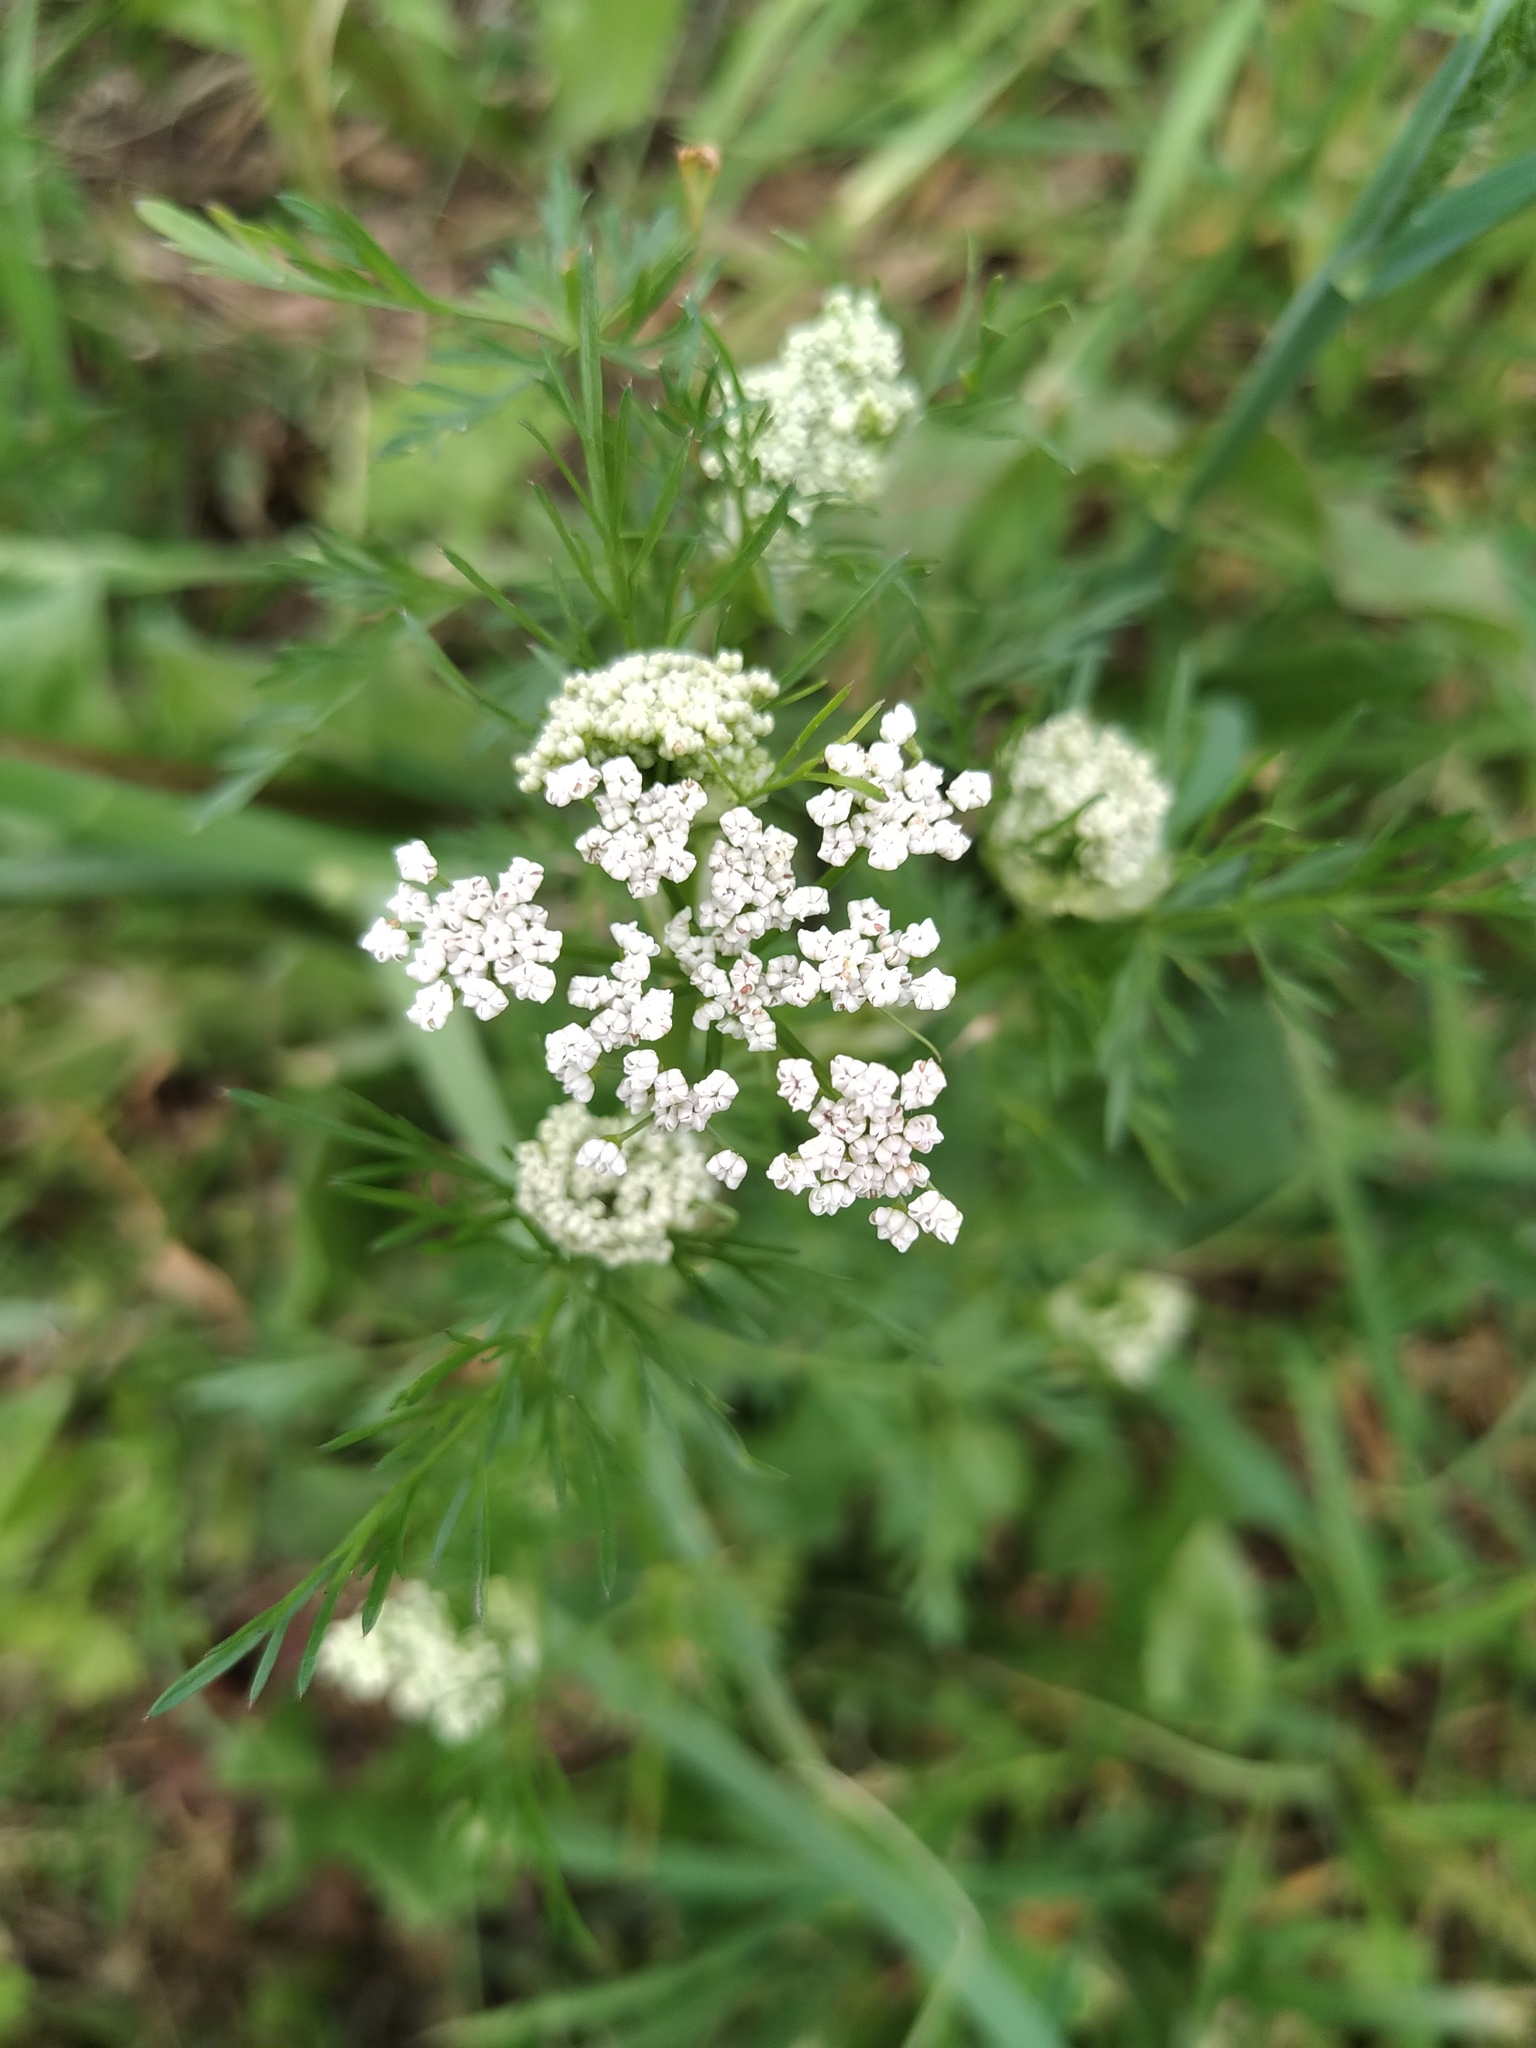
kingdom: Plantae
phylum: Tracheophyta
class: Magnoliopsida
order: Apiales
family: Apiaceae
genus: Carum
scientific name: Carum carvi
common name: Caraway
